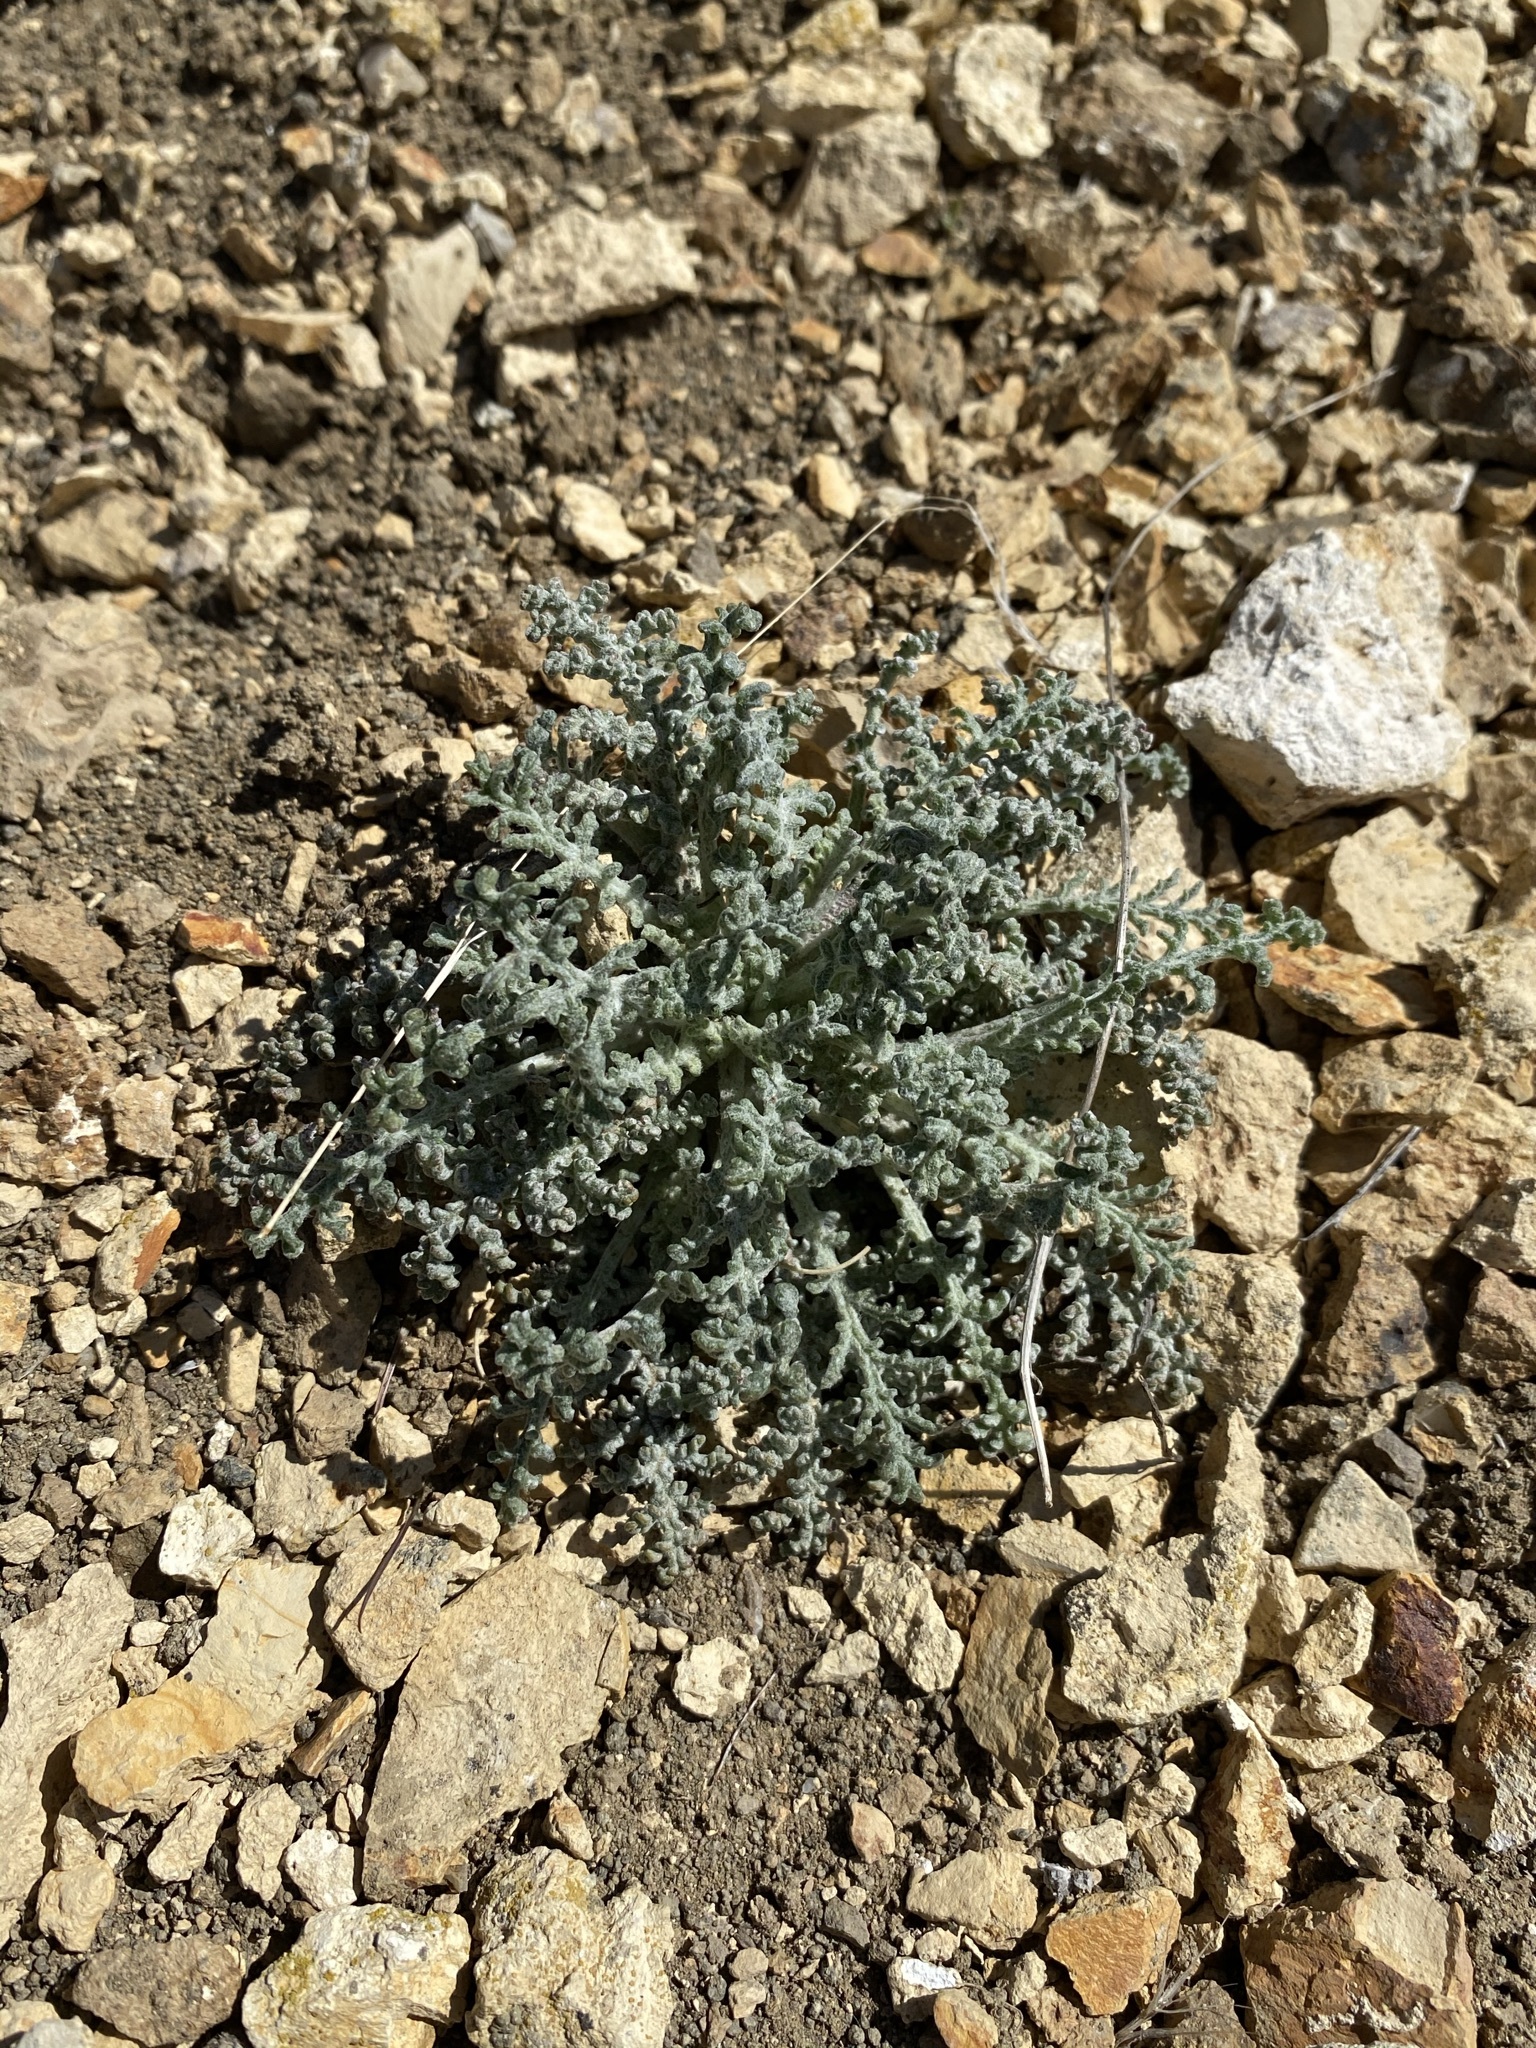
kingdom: Plantae
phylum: Tracheophyta
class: Magnoliopsida
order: Asterales
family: Asteraceae
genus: Chaenactis
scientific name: Chaenactis douglasii
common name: Hoary pincushion
